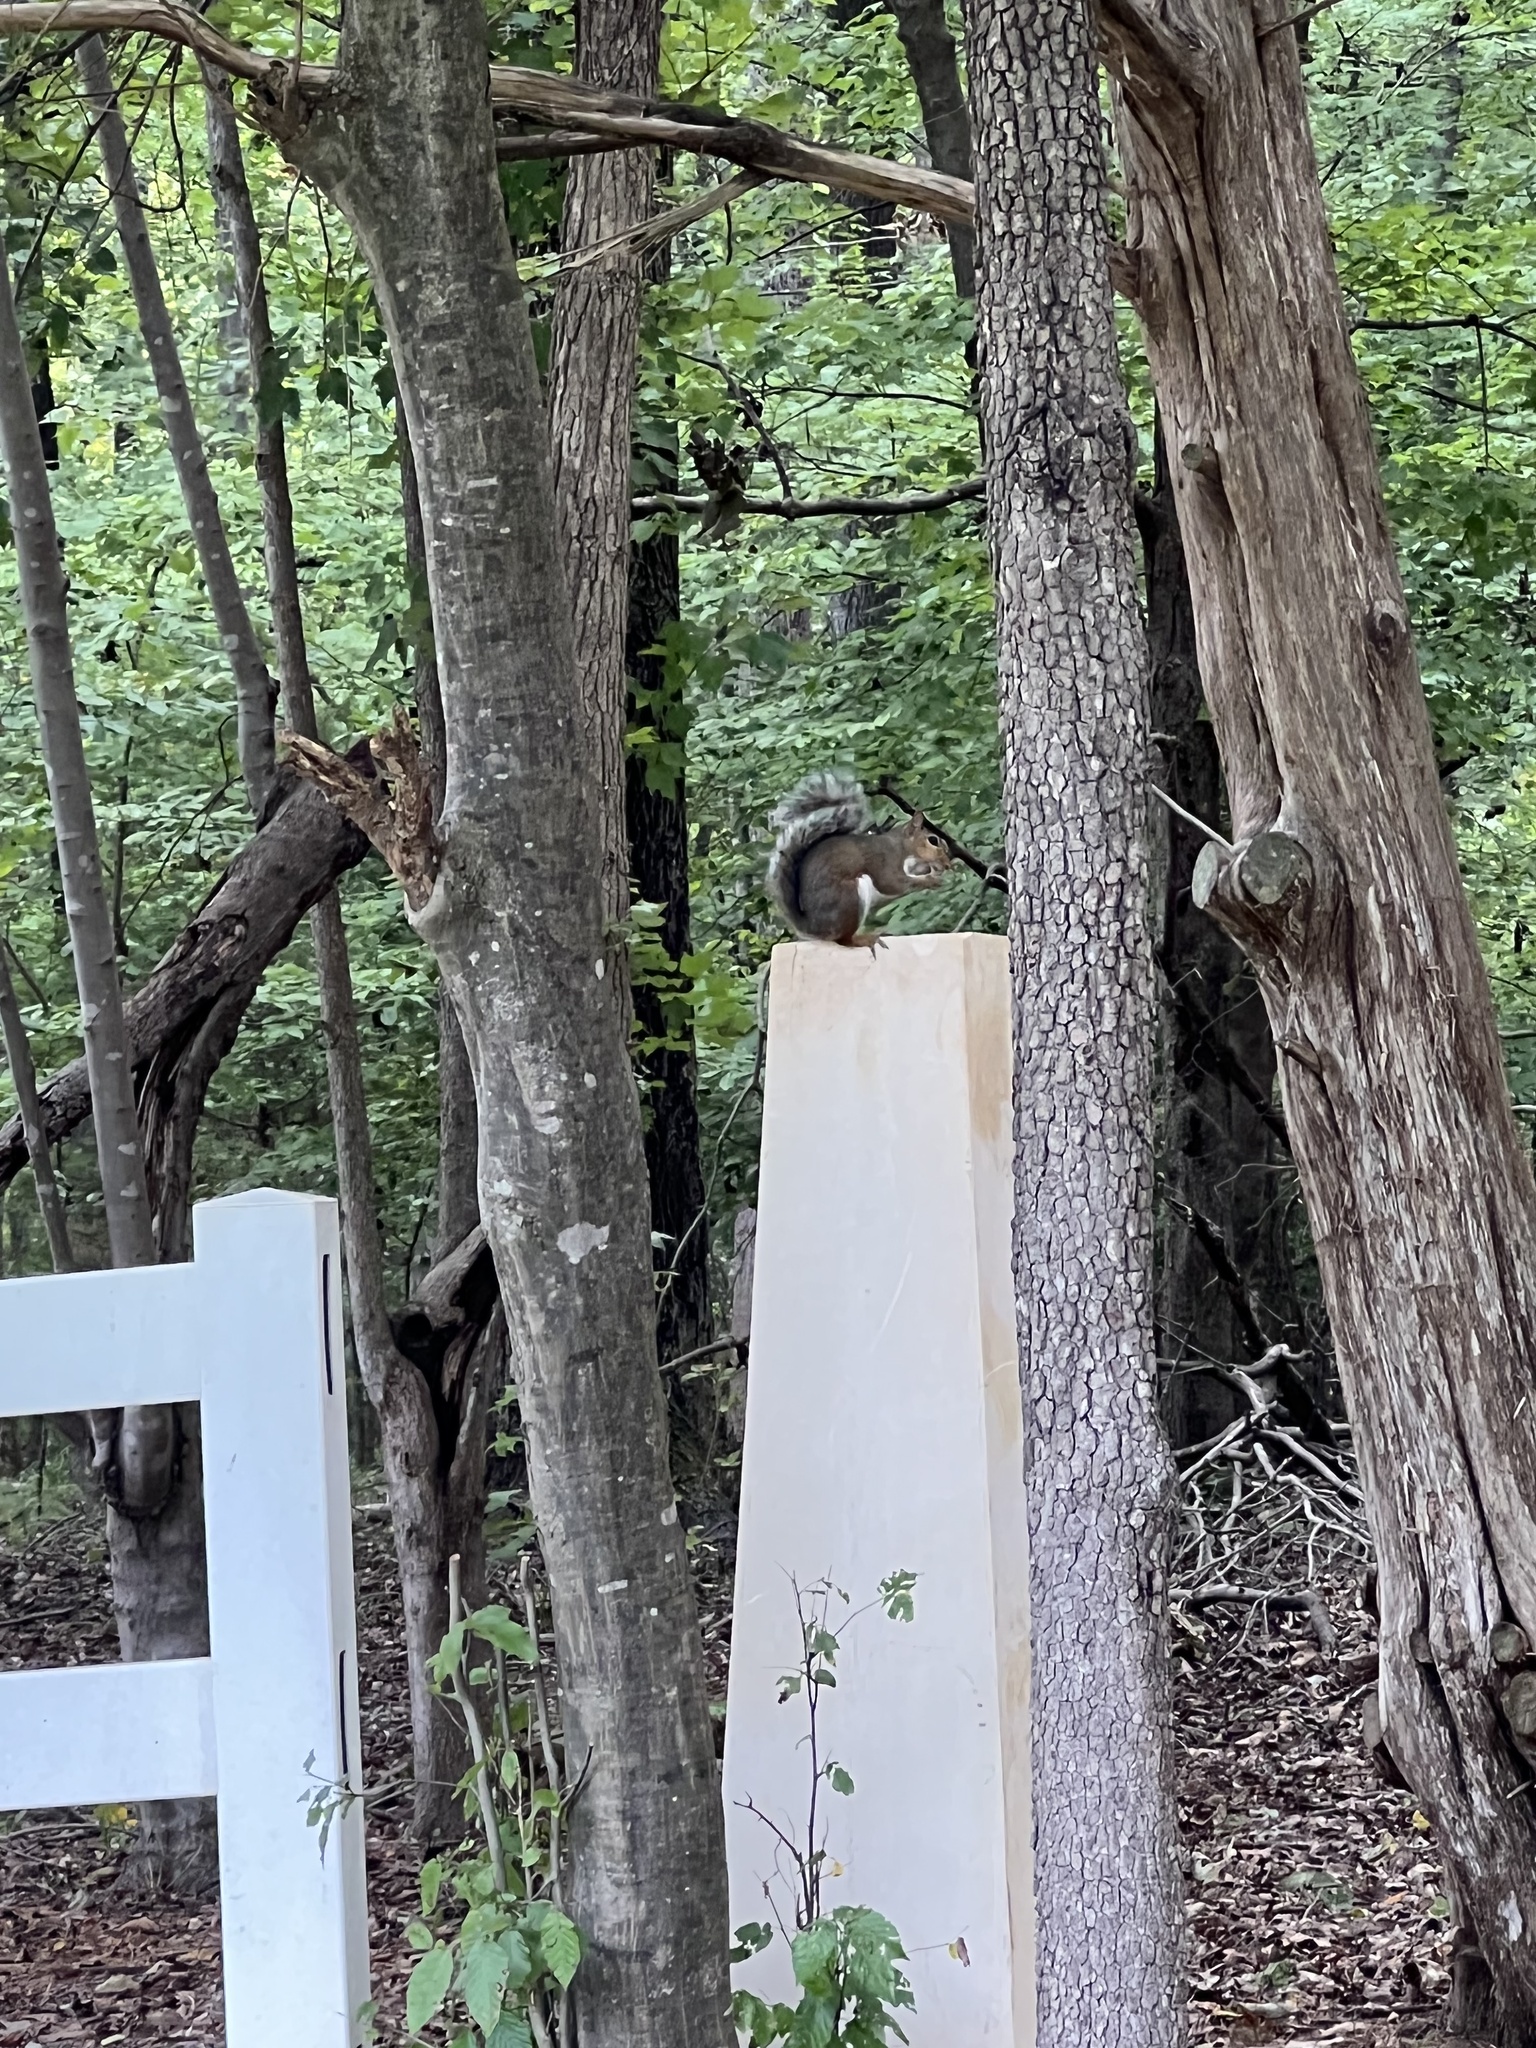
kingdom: Animalia
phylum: Chordata
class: Mammalia
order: Rodentia
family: Sciuridae
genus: Sciurus
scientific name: Sciurus carolinensis
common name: Eastern gray squirrel
